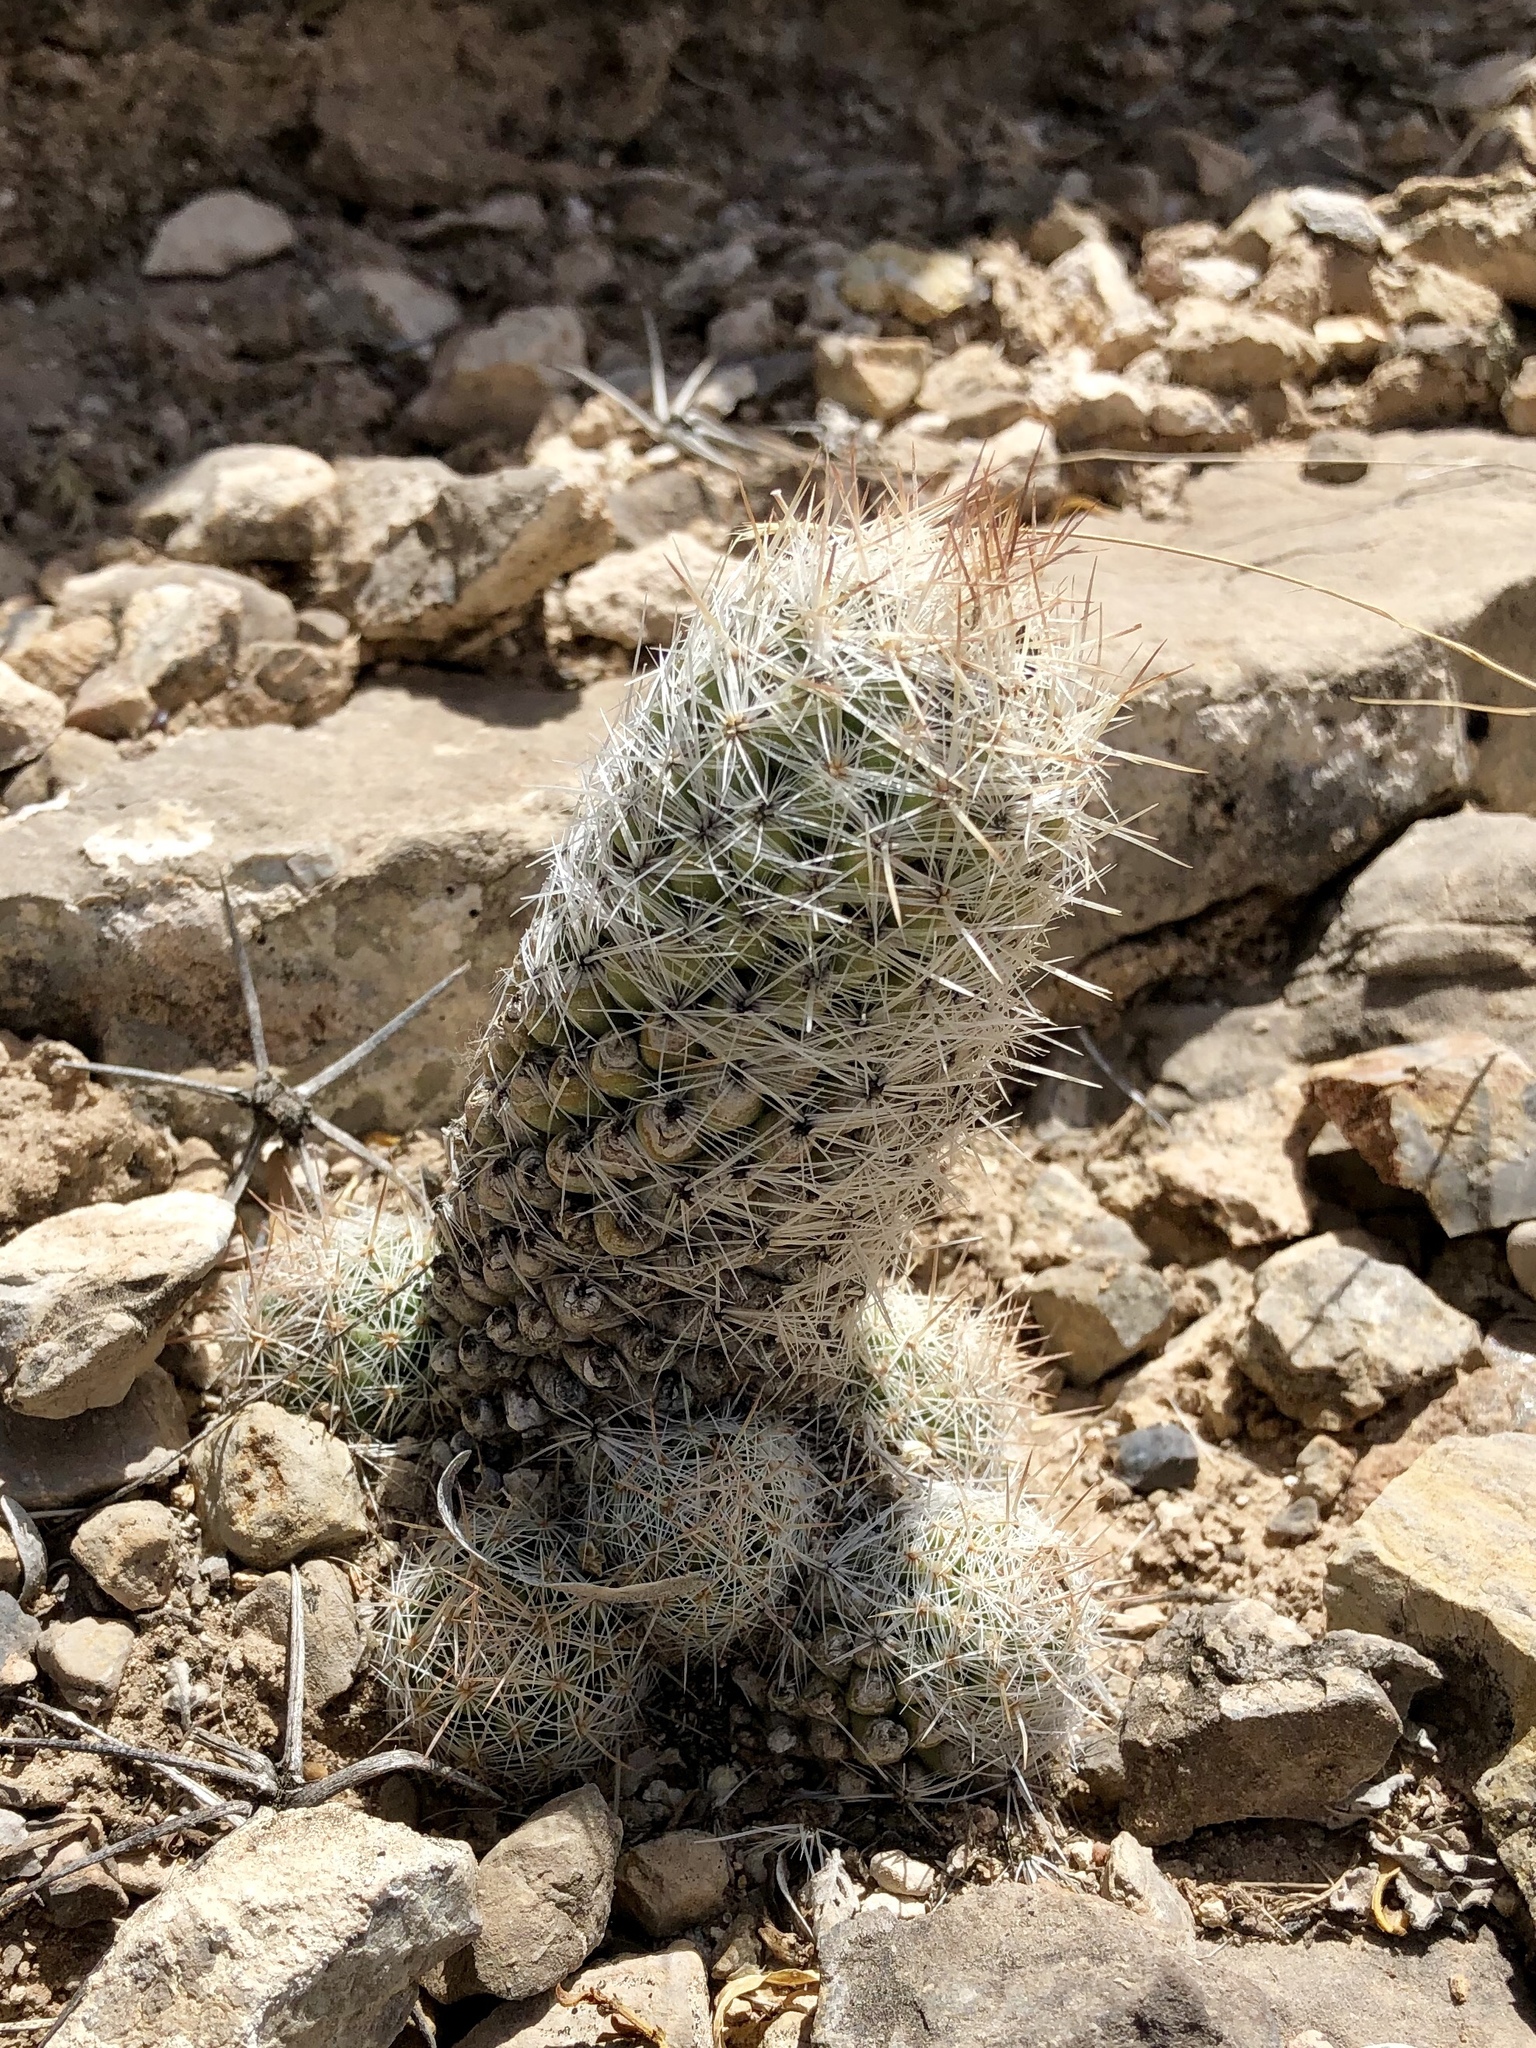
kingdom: Plantae
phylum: Tracheophyta
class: Magnoliopsida
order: Caryophyllales
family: Cactaceae
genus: Pelecyphora
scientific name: Pelecyphora tuberculosa
